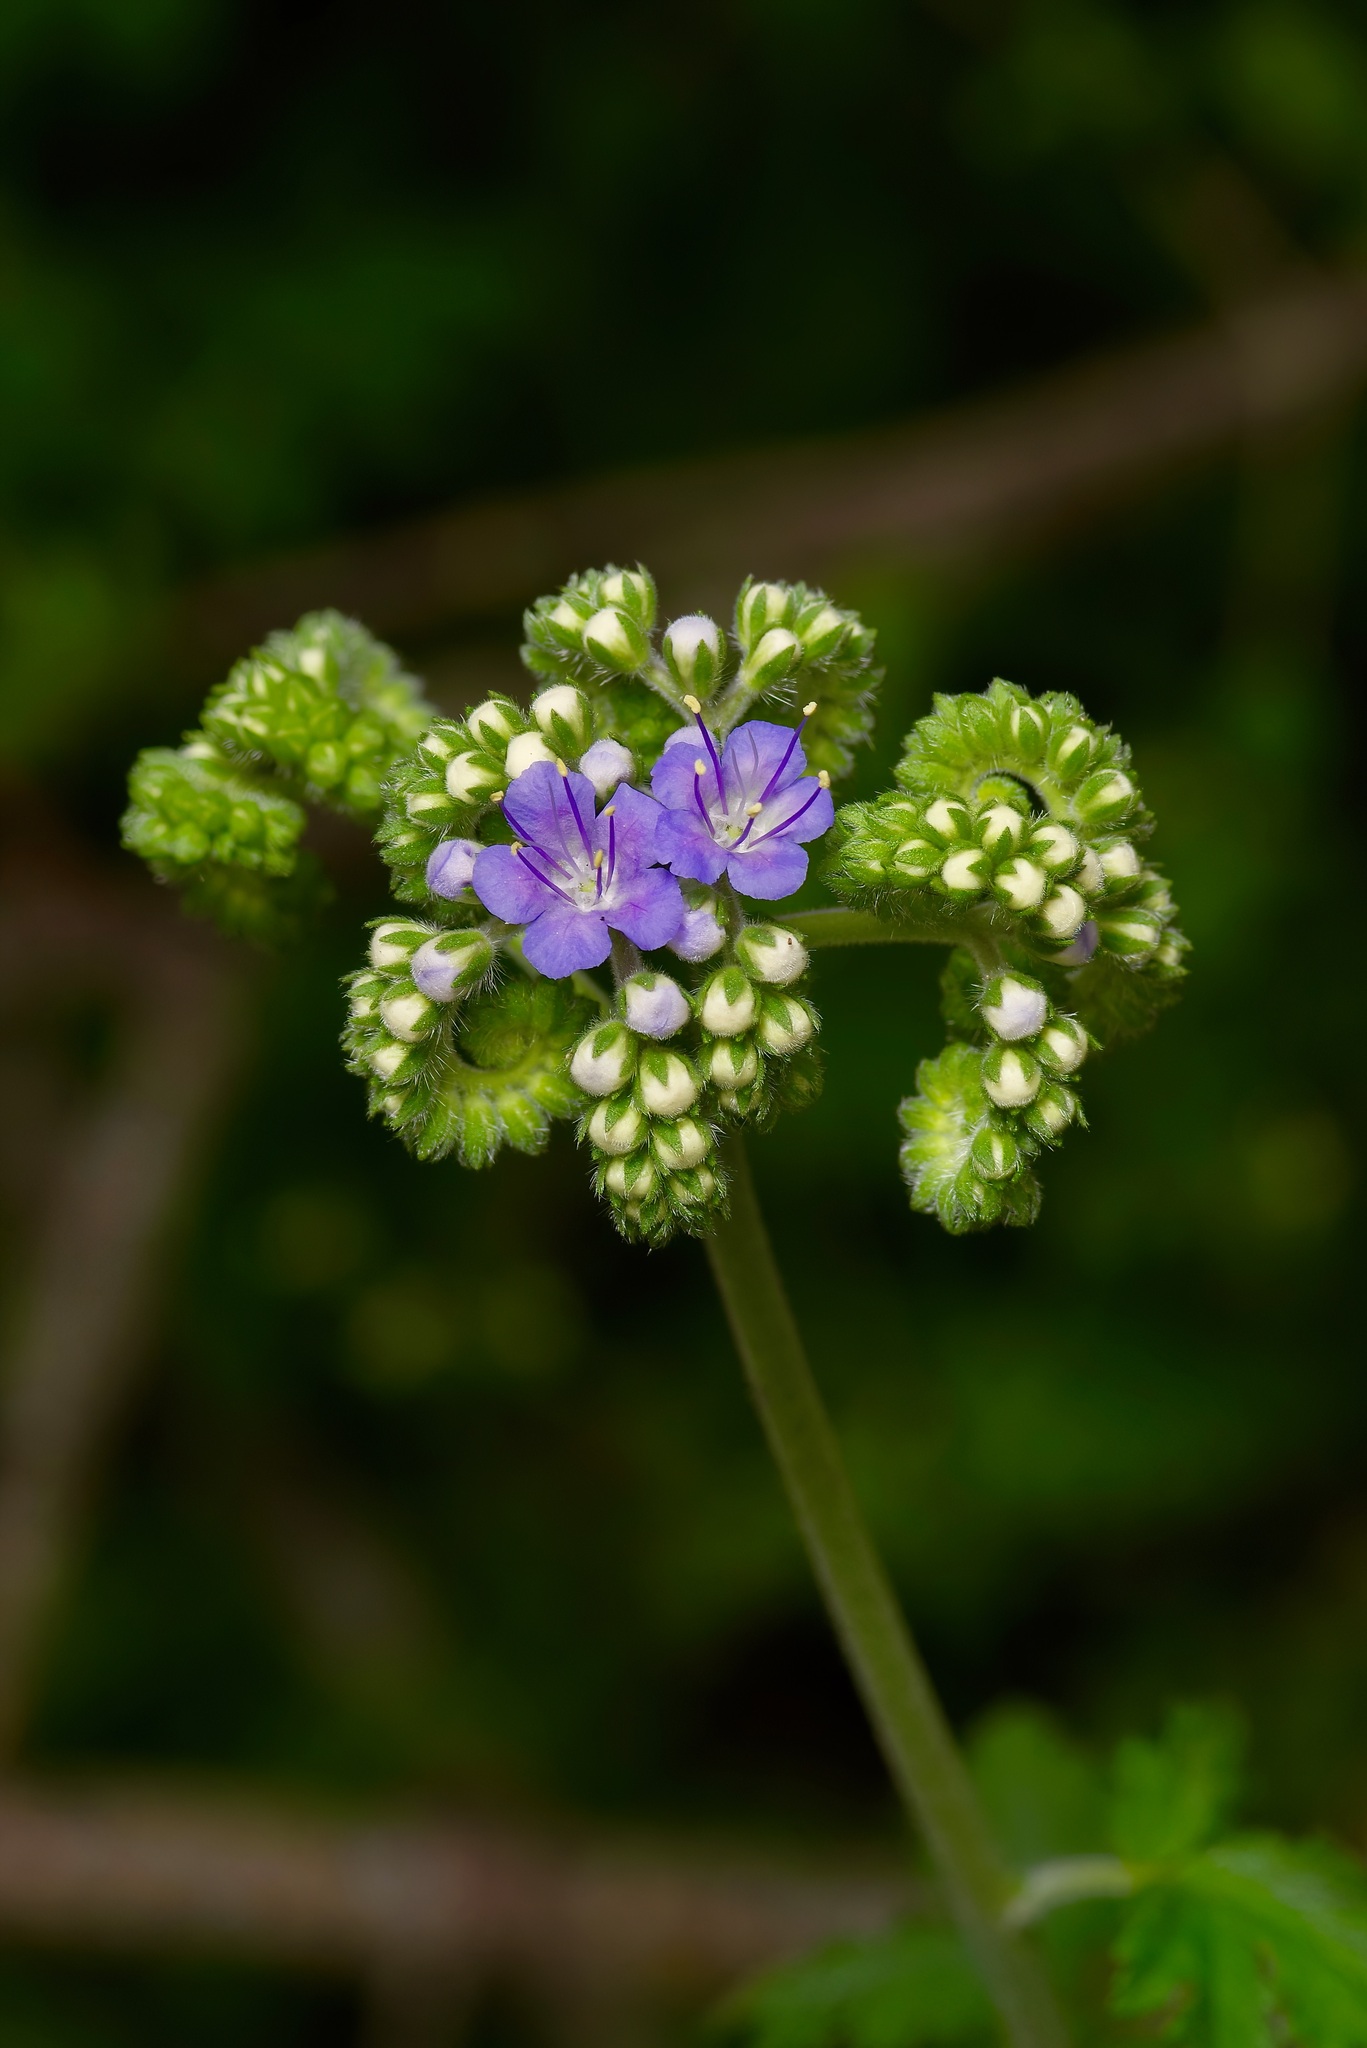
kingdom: Plantae
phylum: Tracheophyta
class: Magnoliopsida
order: Boraginales
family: Hydrophyllaceae
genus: Phacelia
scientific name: Phacelia congesta
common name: Blue curls
